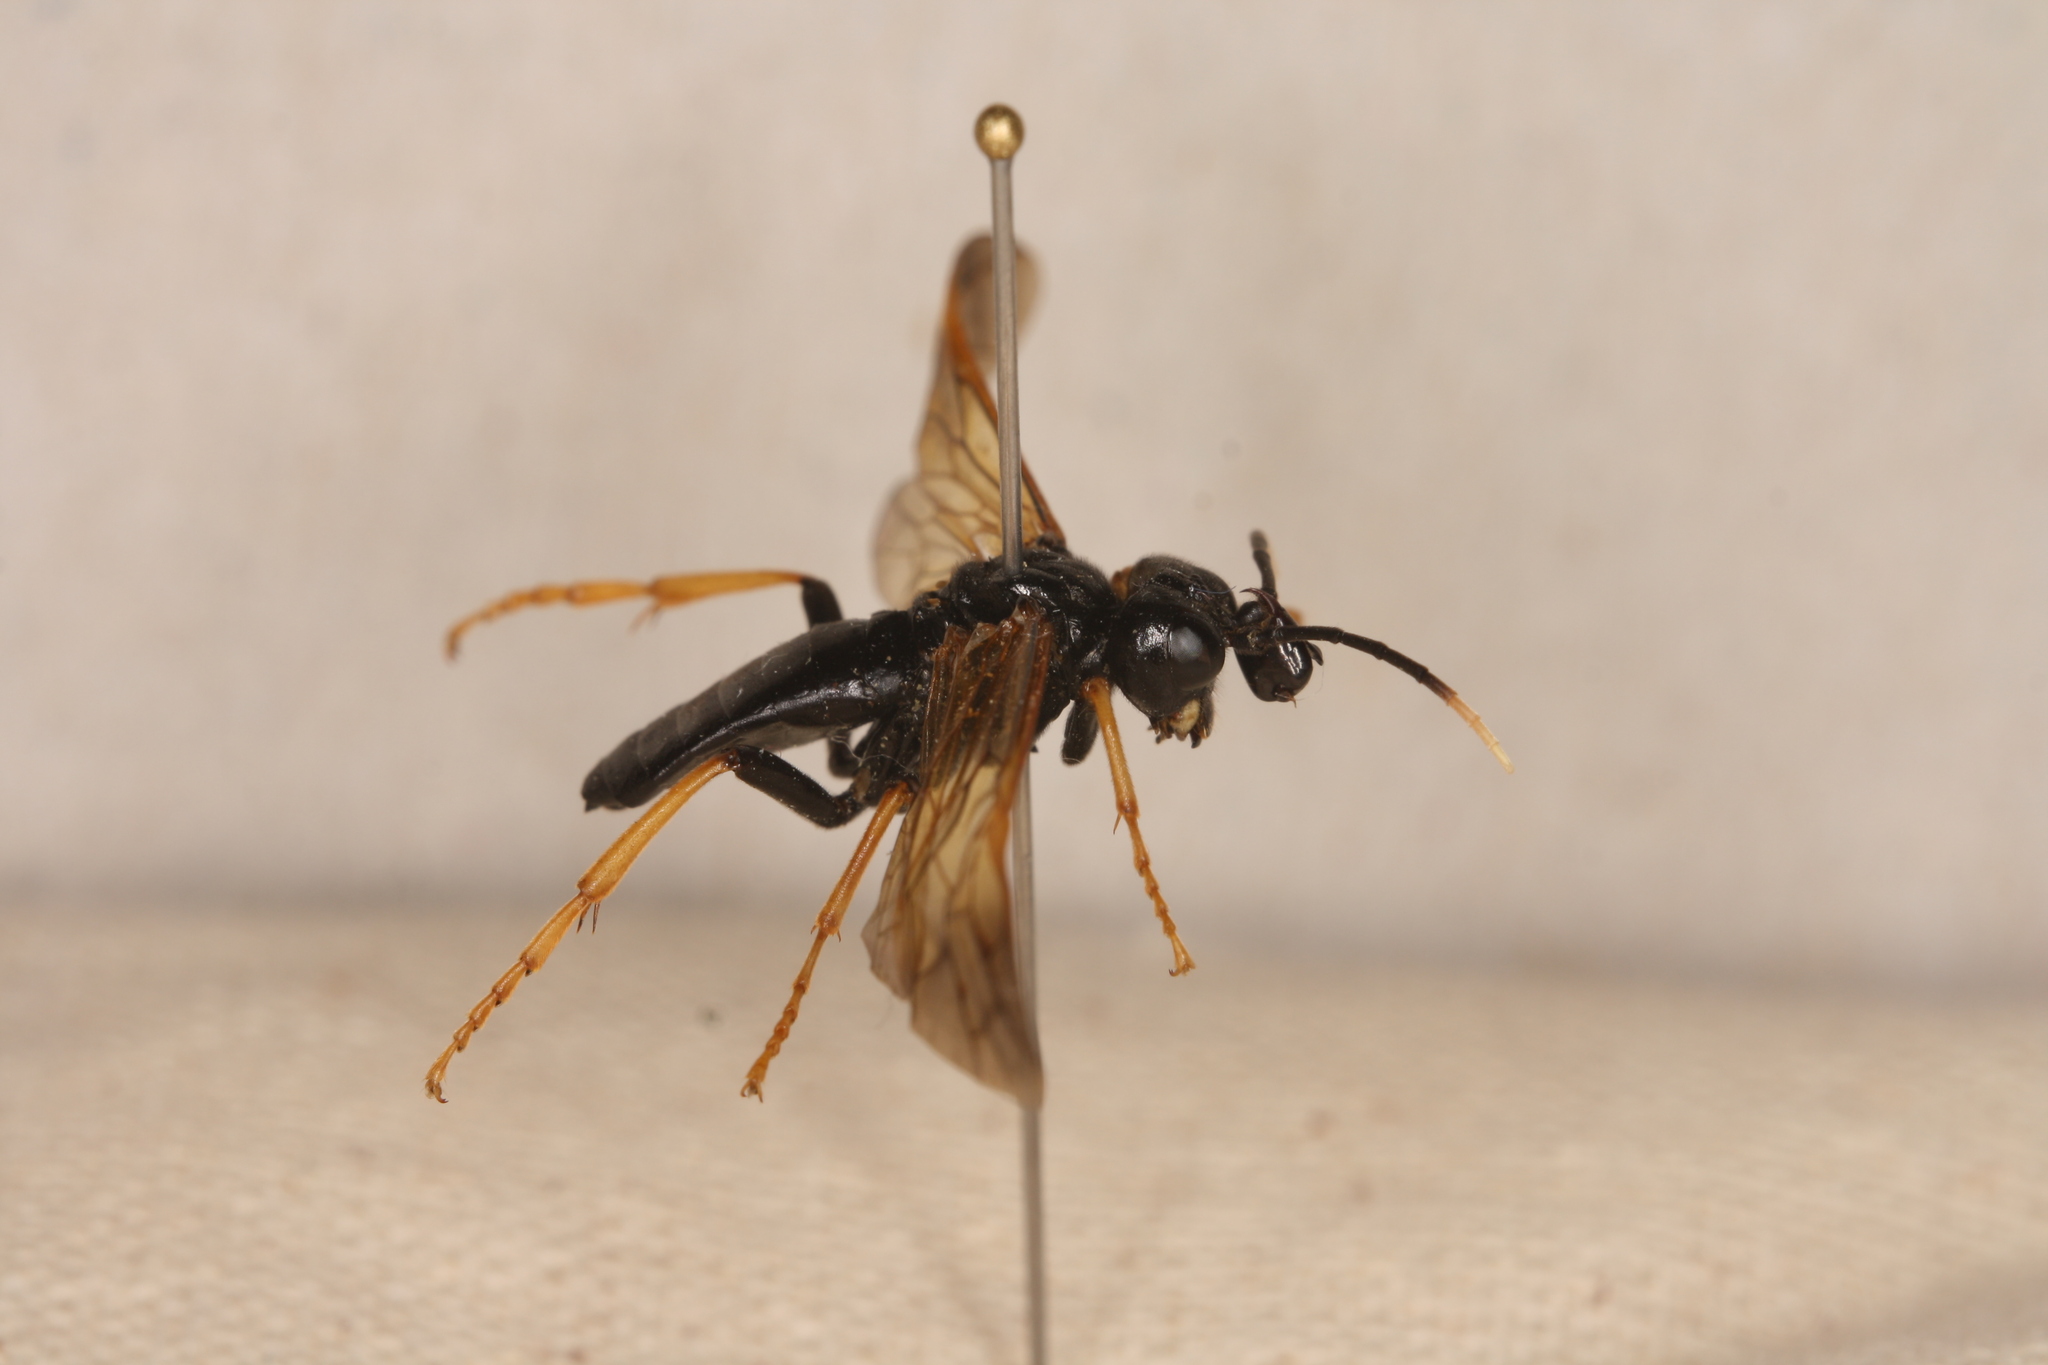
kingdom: Animalia
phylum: Arthropoda
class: Insecta
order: Hymenoptera
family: Tenthredinidae
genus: Tenthredo
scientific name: Tenthredo crassa
